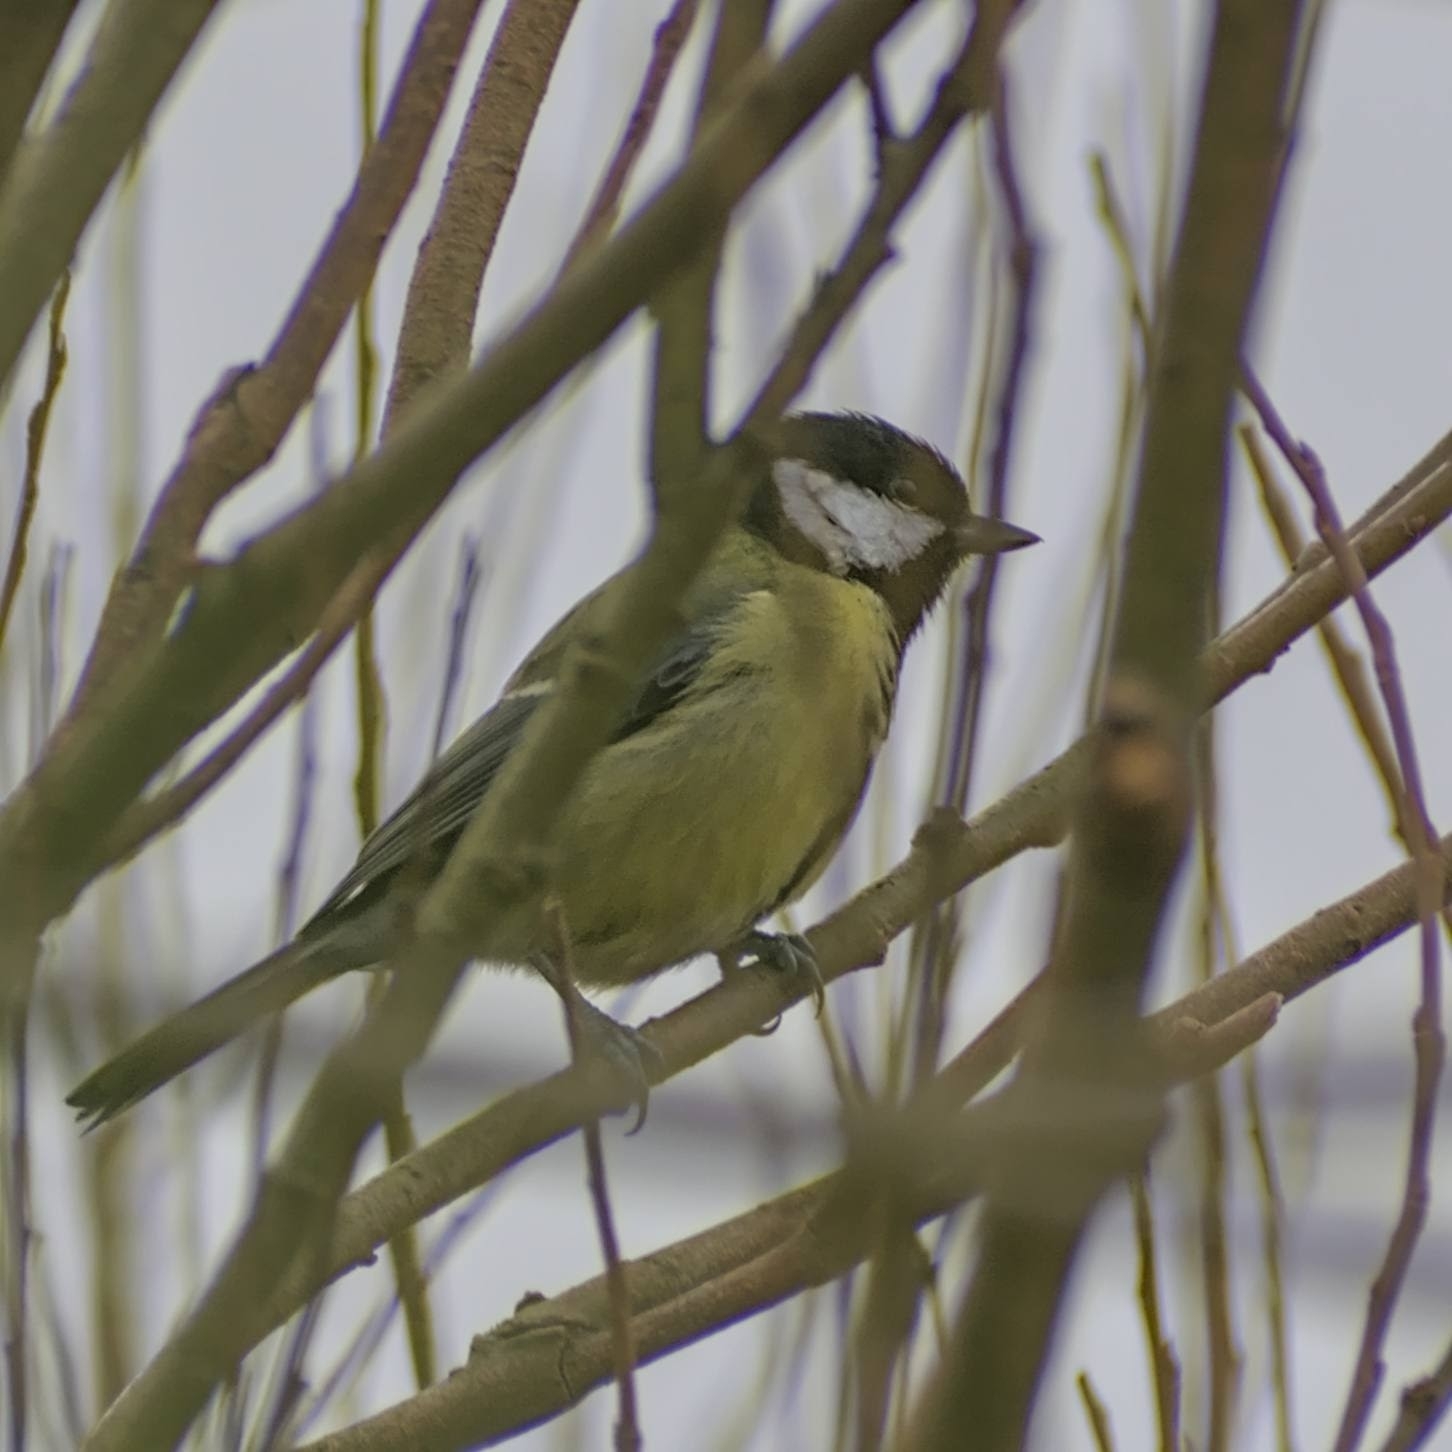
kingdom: Animalia
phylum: Chordata
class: Aves
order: Passeriformes
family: Paridae
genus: Parus
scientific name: Parus major
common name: Great tit
